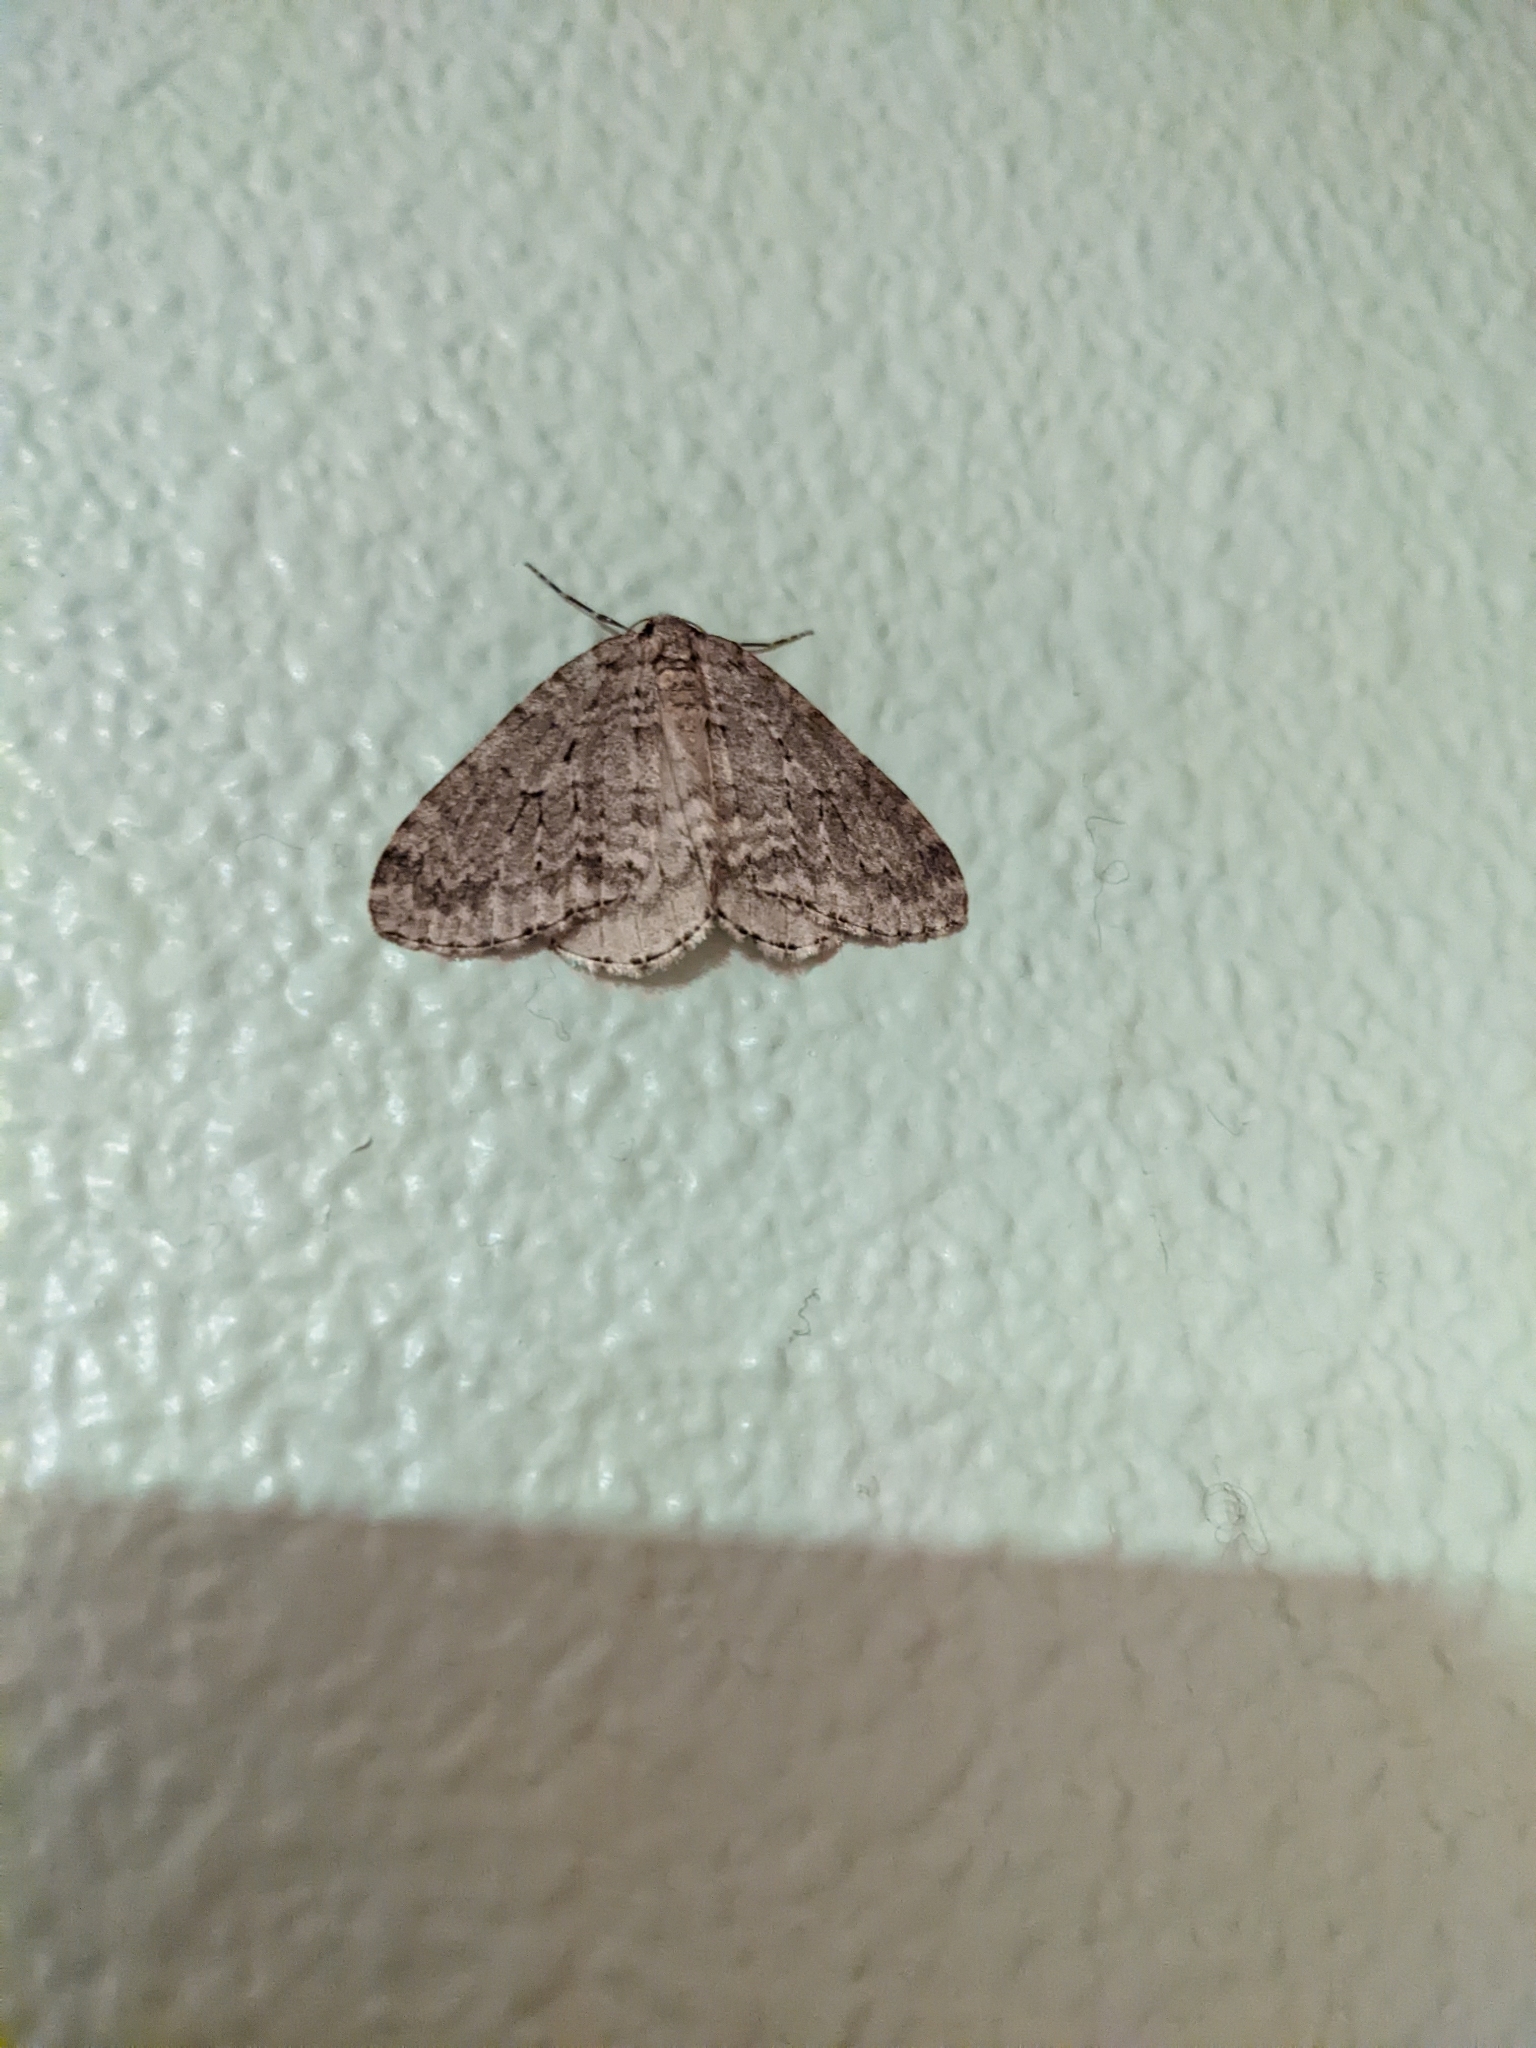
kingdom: Animalia
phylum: Arthropoda
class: Insecta
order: Lepidoptera
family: Geometridae
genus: Epirrita
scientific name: Epirrita autumnata
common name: Autumnal moth
